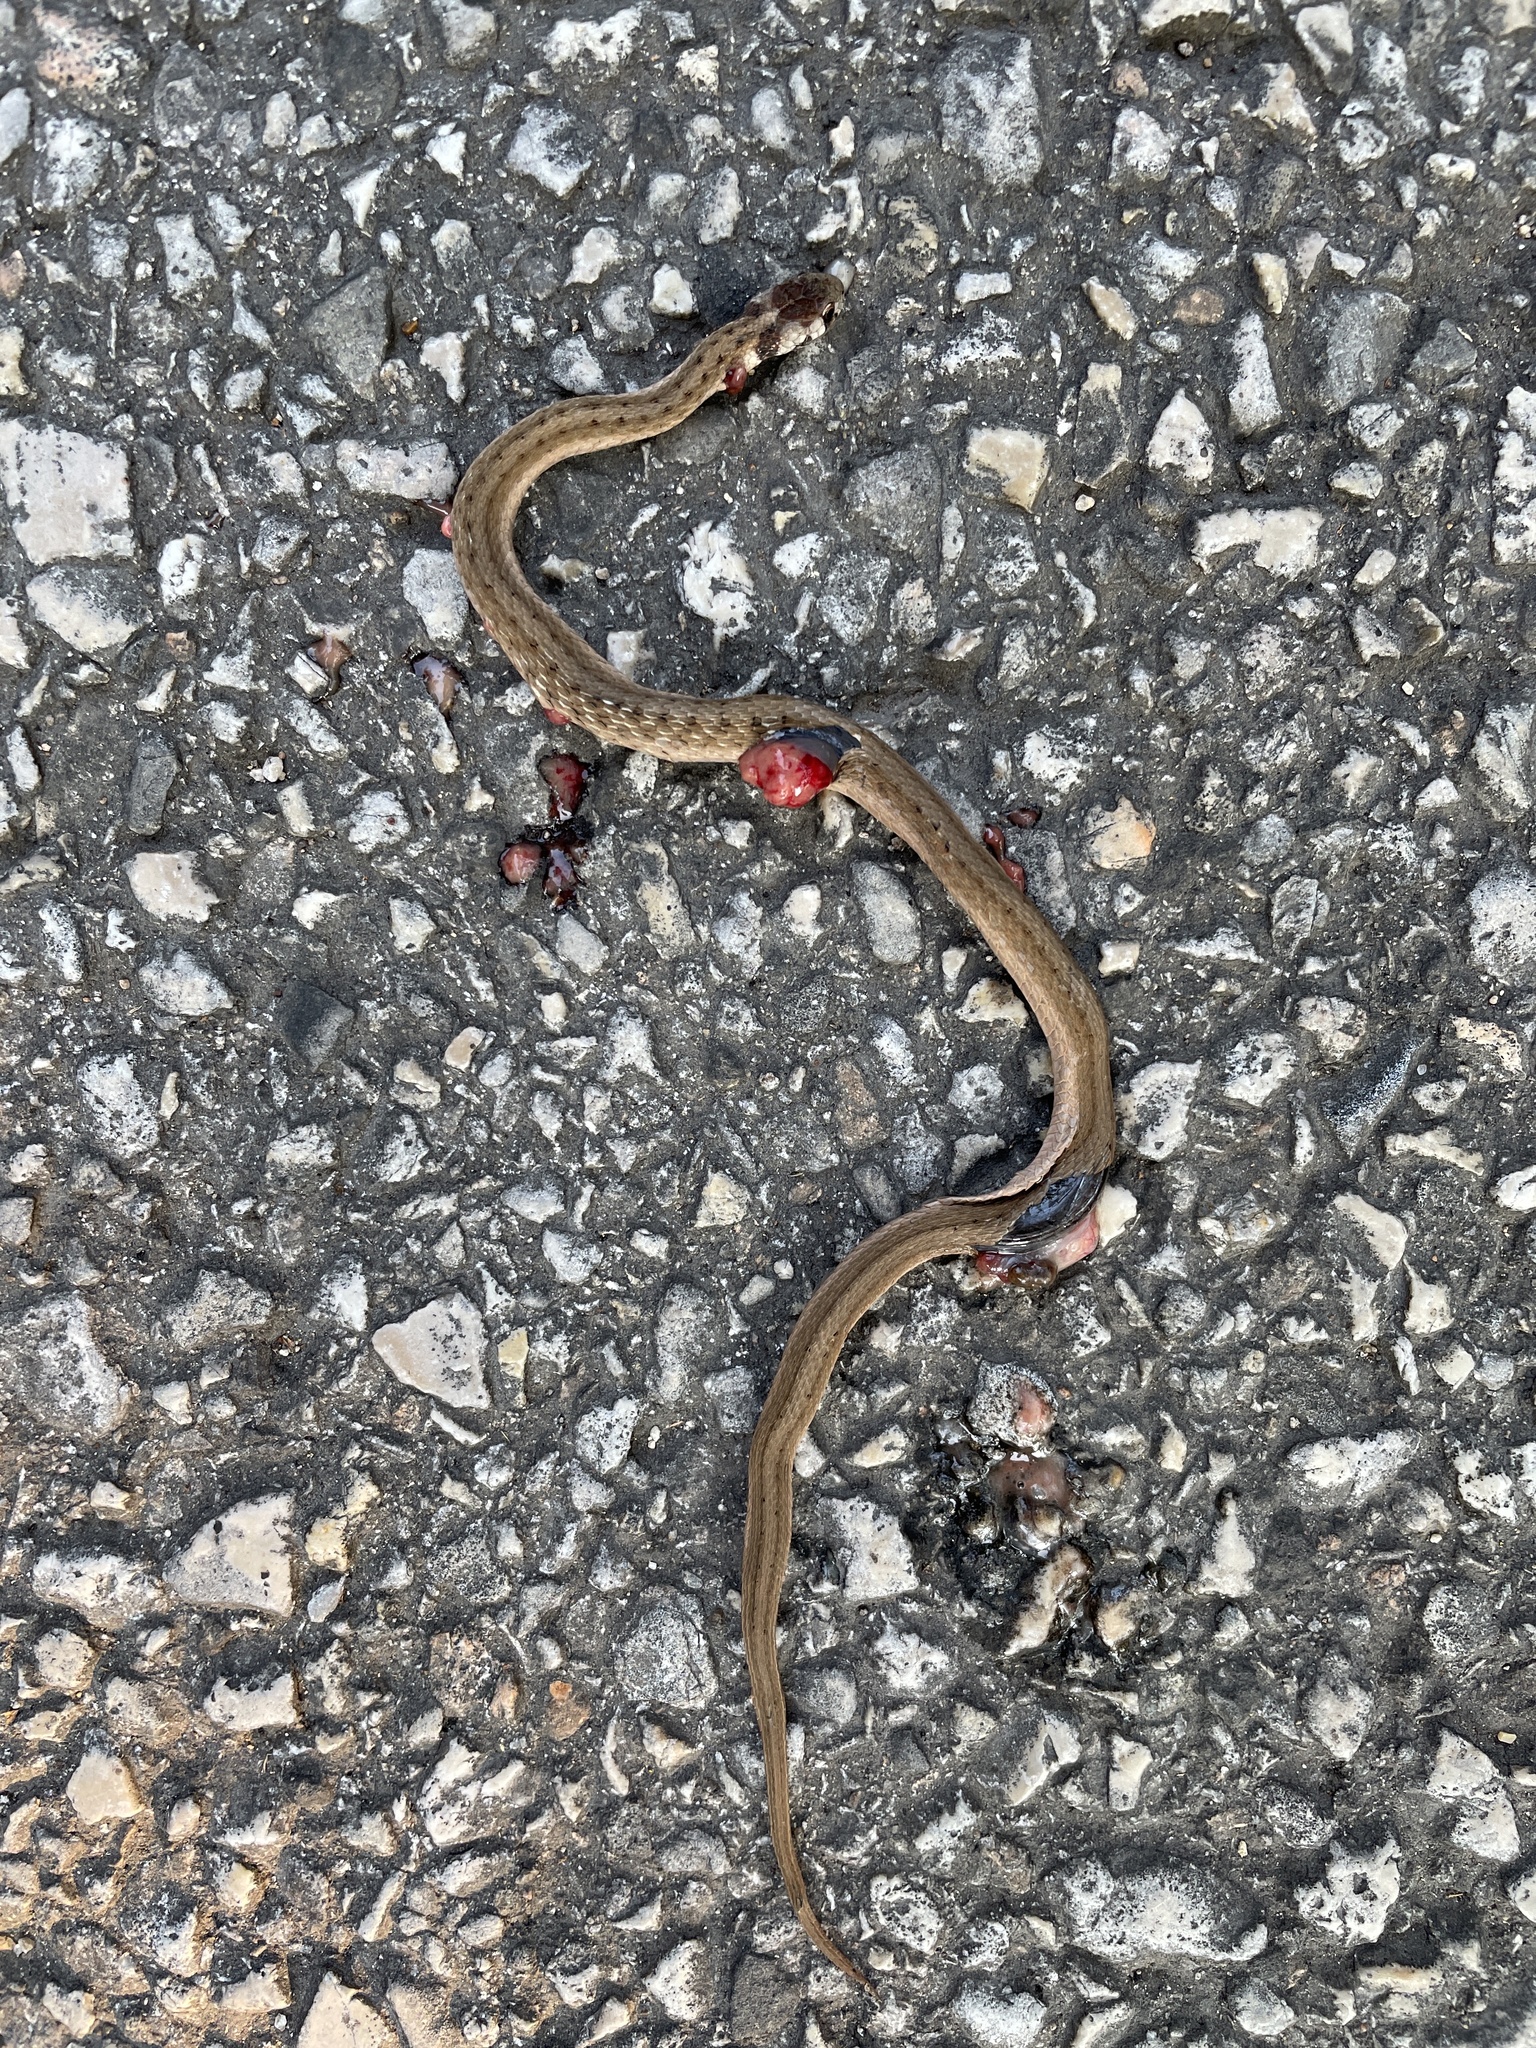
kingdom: Animalia
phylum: Chordata
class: Squamata
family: Colubridae
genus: Storeria
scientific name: Storeria dekayi
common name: (dekay’s) brown snake
